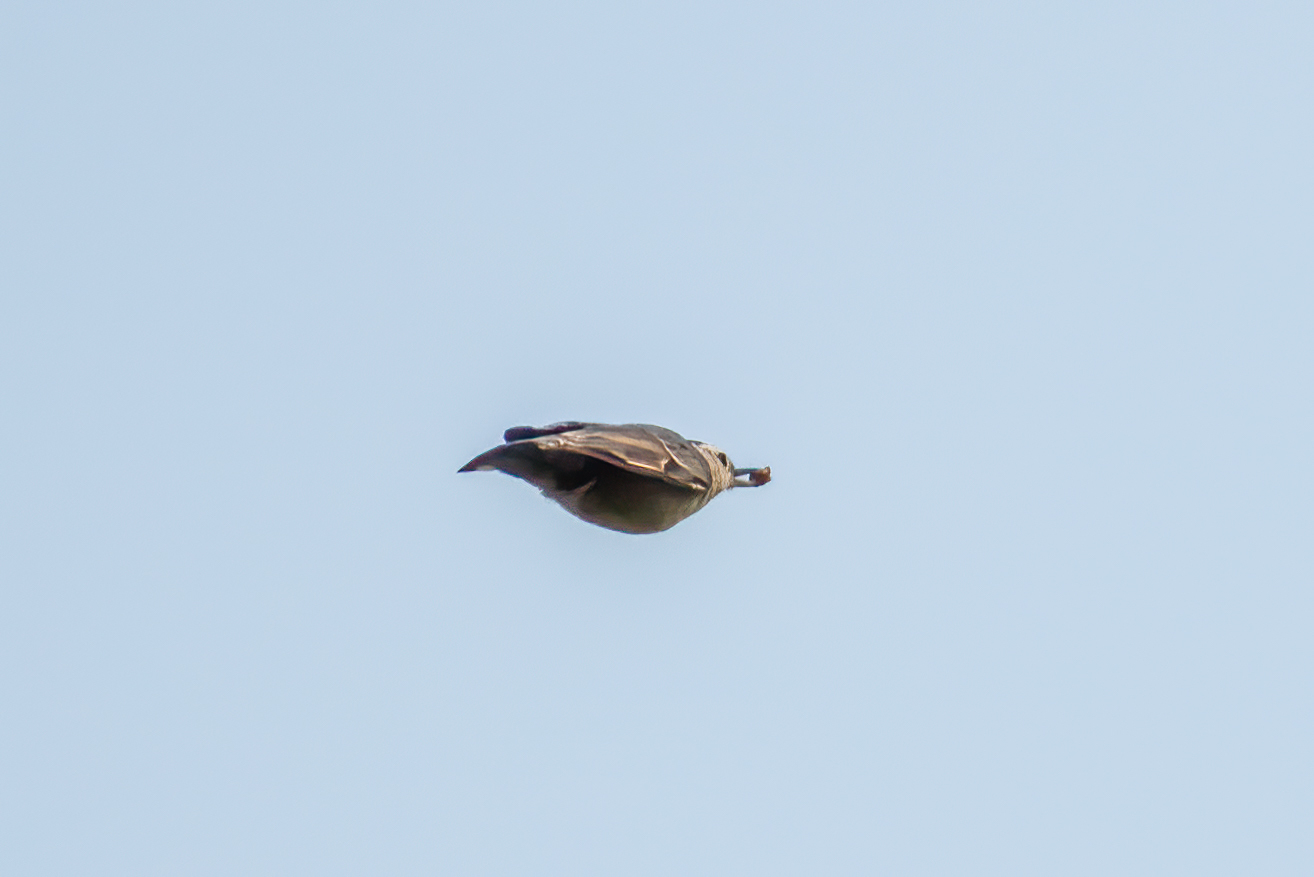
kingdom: Animalia
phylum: Chordata
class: Aves
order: Passeriformes
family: Sittidae
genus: Sitta
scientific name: Sitta carolinensis
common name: White-breasted nuthatch
